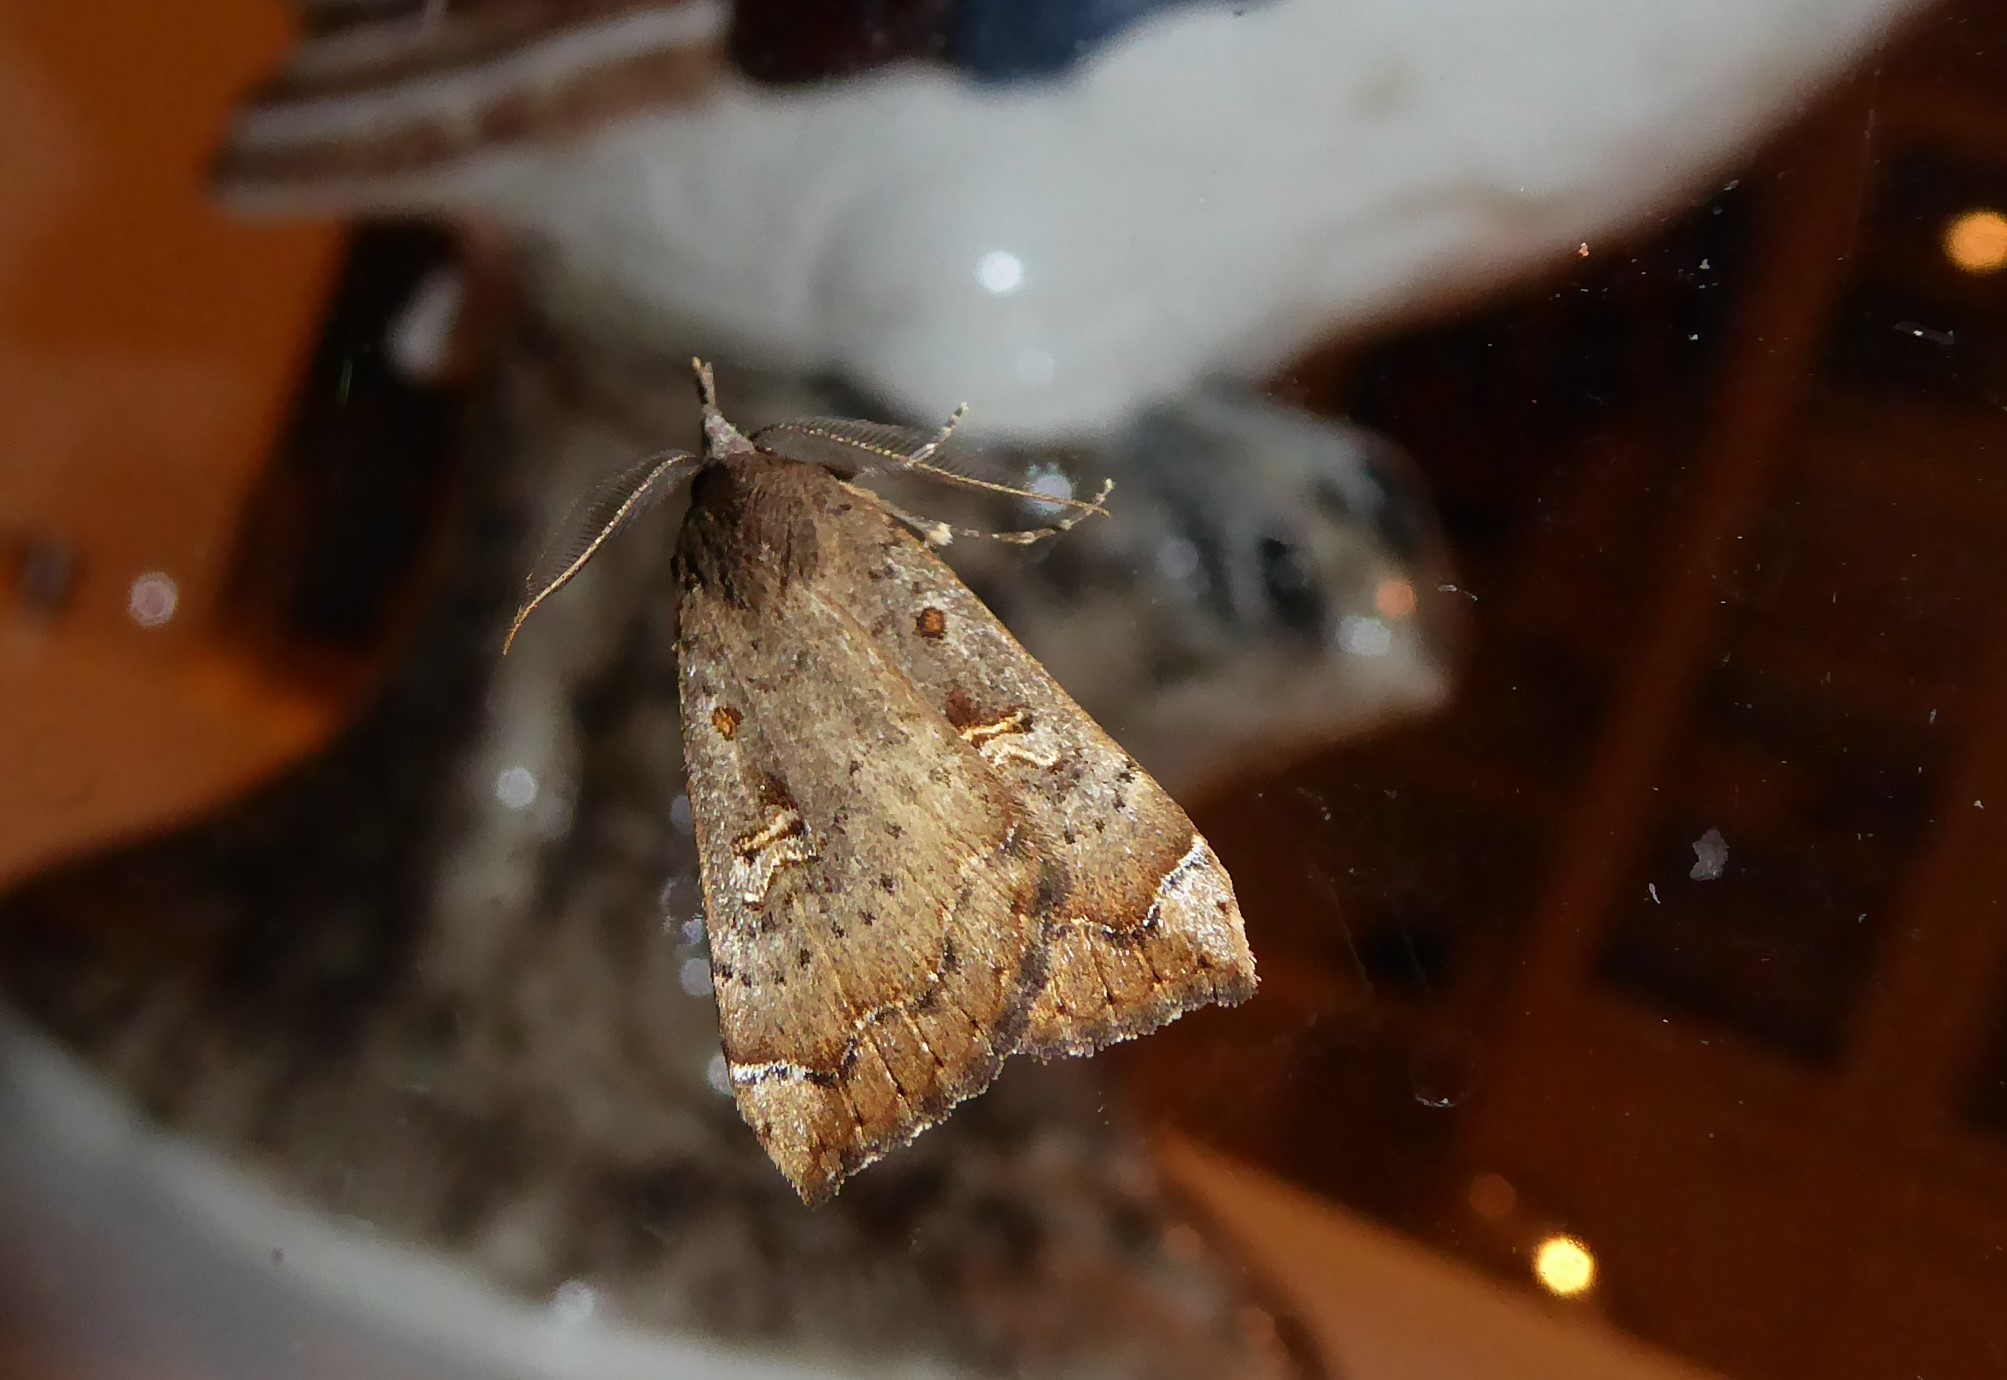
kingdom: Animalia
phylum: Arthropoda
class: Insecta
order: Lepidoptera
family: Erebidae
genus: Rhapsa
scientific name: Rhapsa scotosialis
